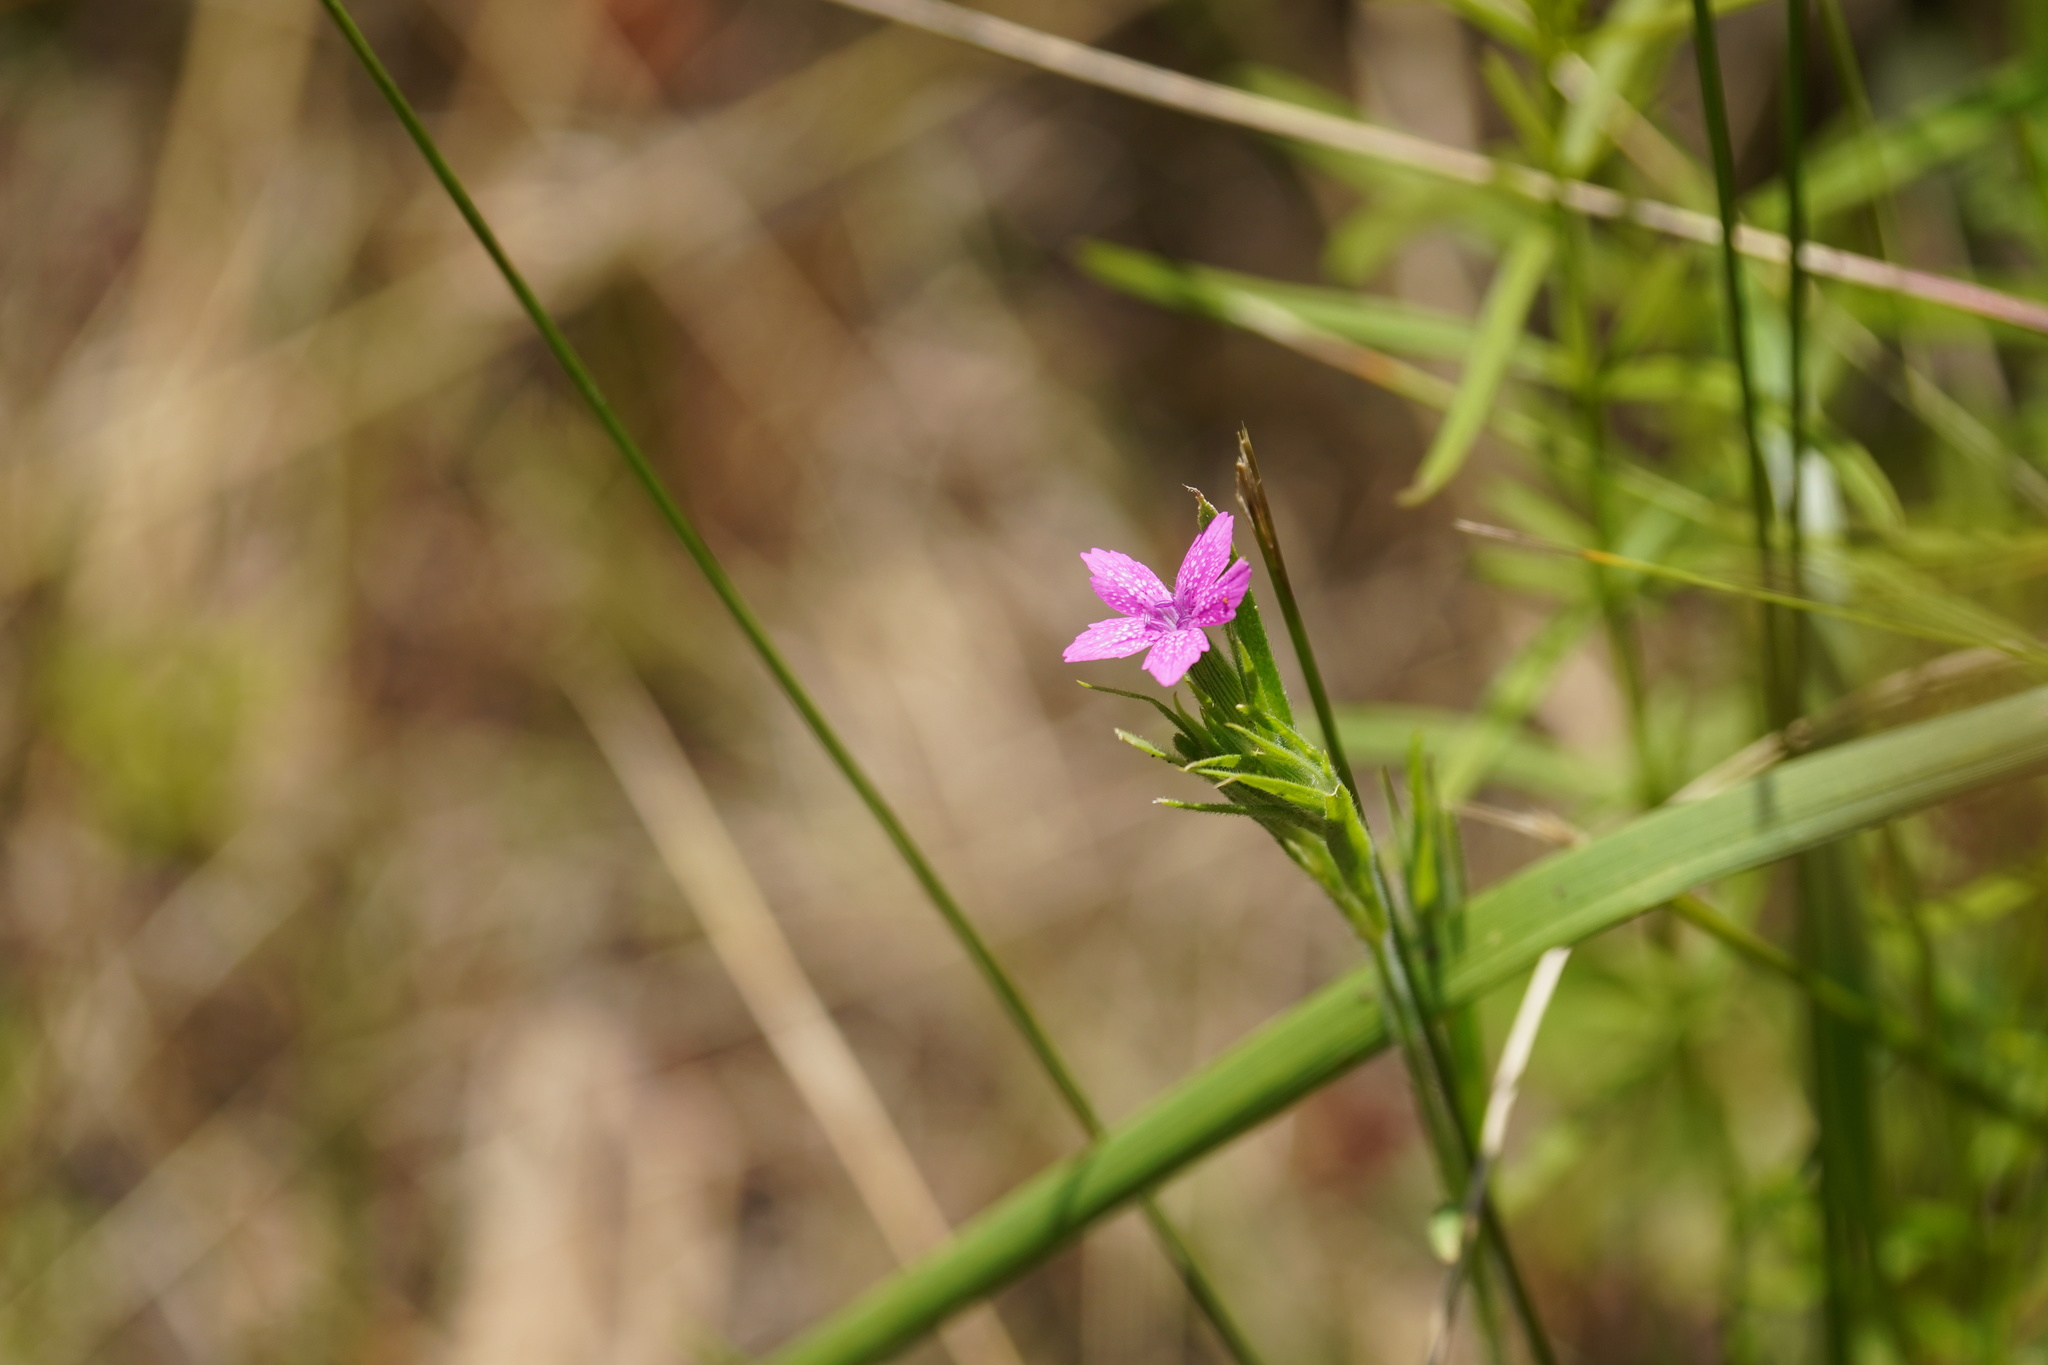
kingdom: Plantae
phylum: Tracheophyta
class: Magnoliopsida
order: Caryophyllales
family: Caryophyllaceae
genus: Dianthus
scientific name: Dianthus armeria
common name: Deptford pink
